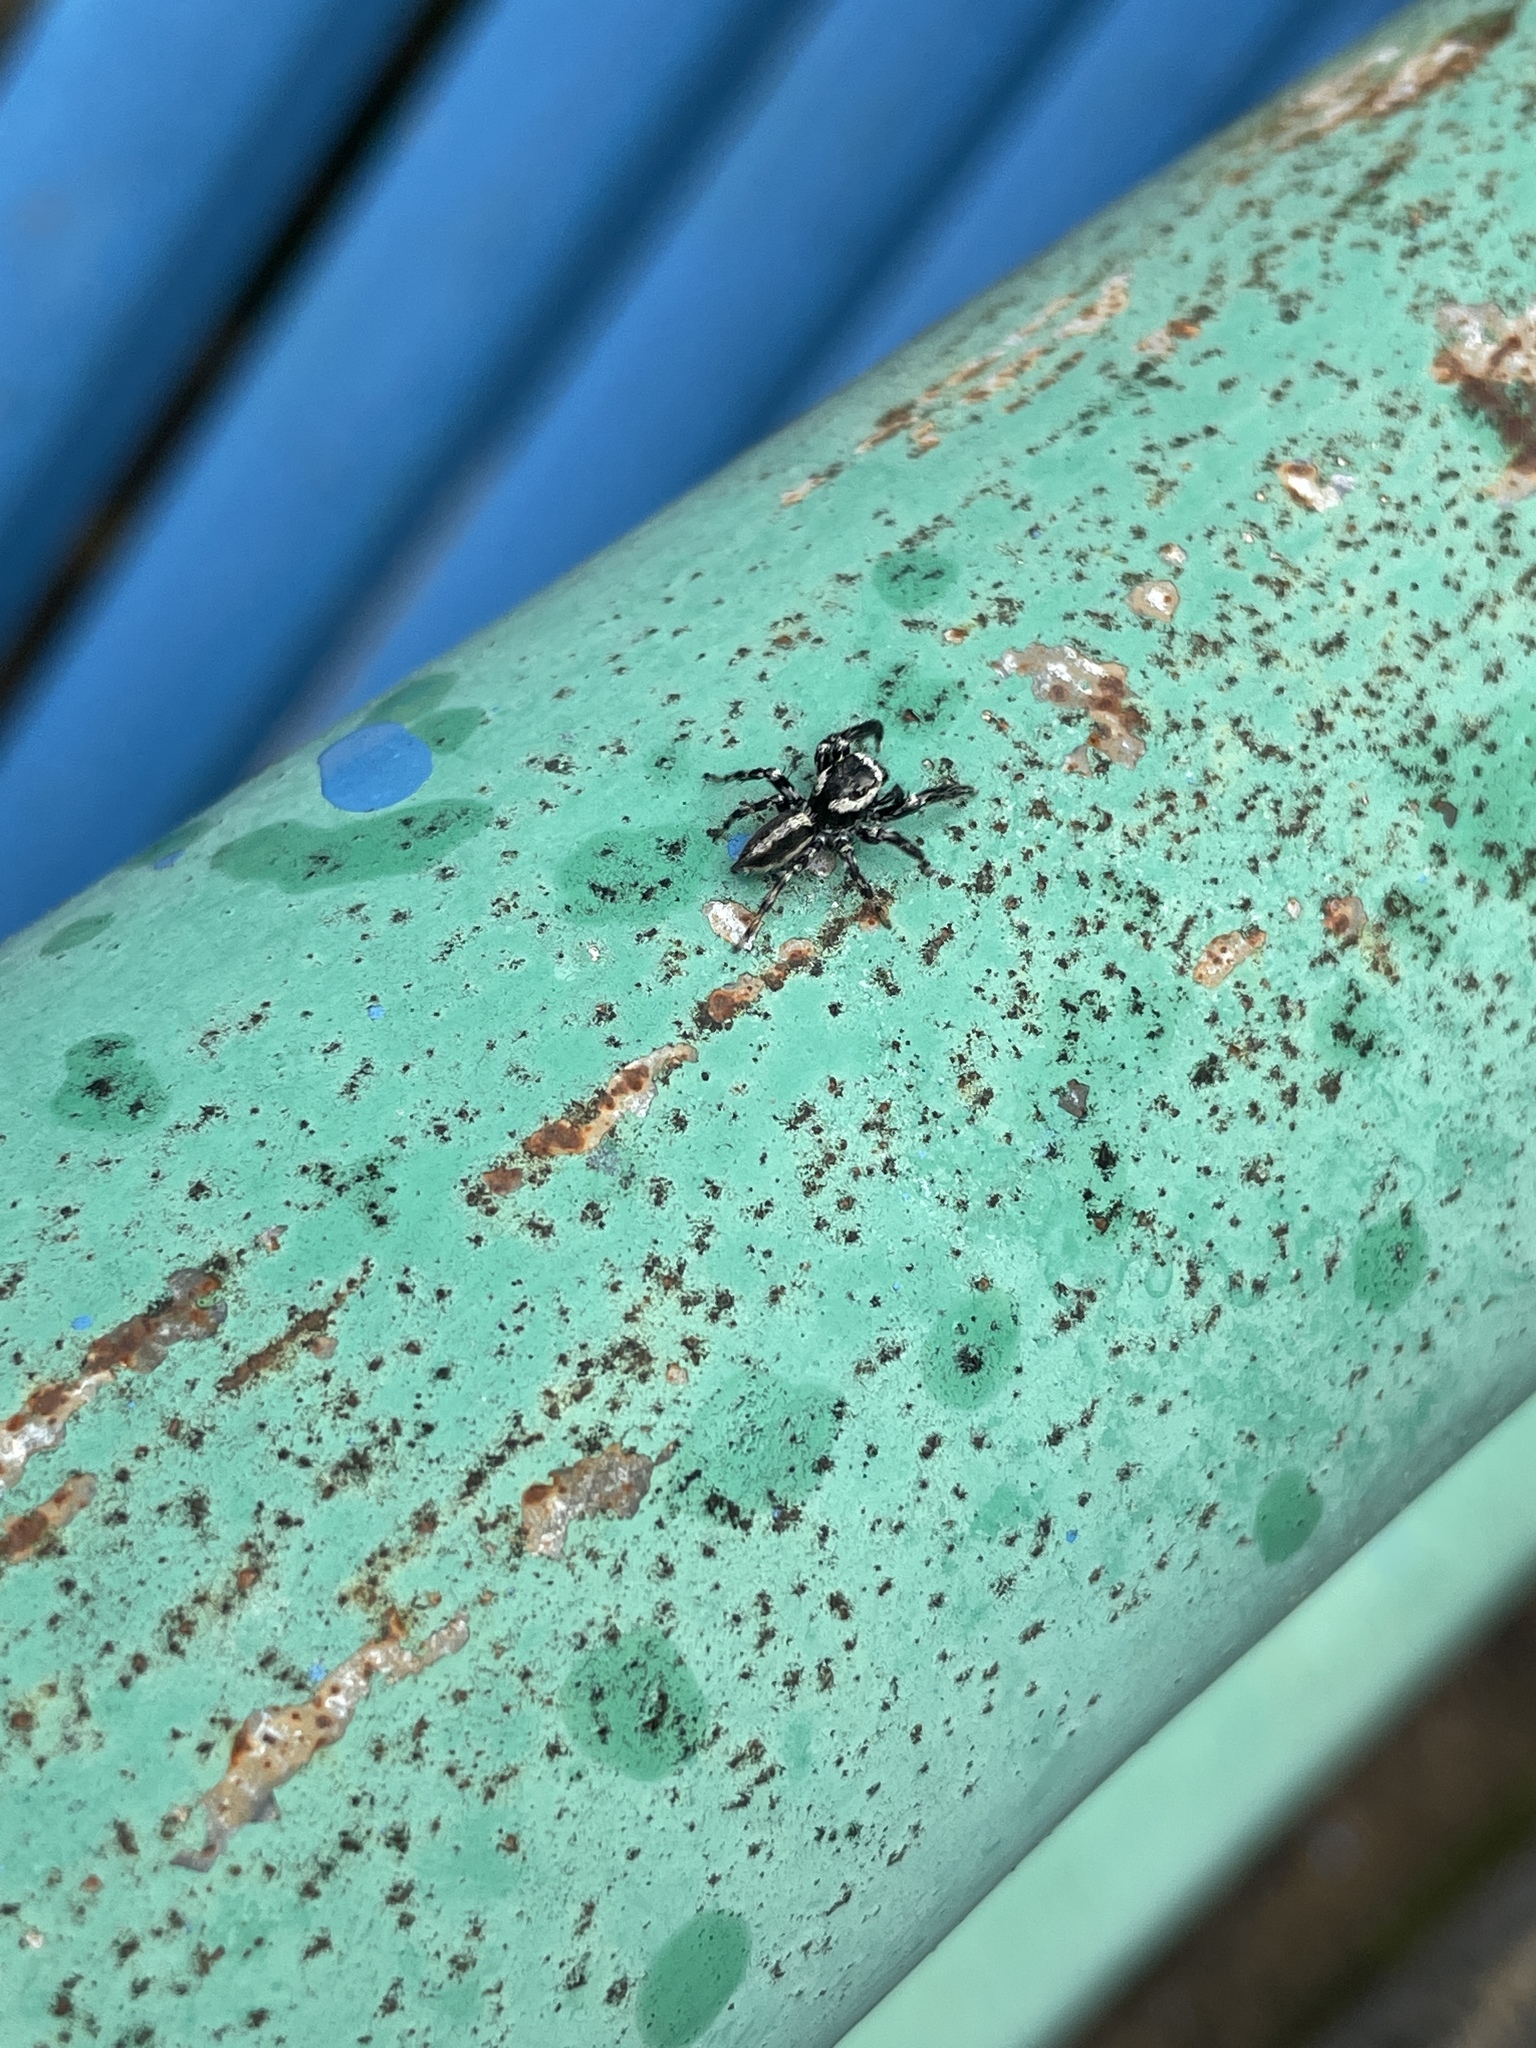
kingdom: Animalia
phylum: Arthropoda
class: Arachnida
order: Araneae
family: Salticidae
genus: Evarcha
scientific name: Evarcha pococki
